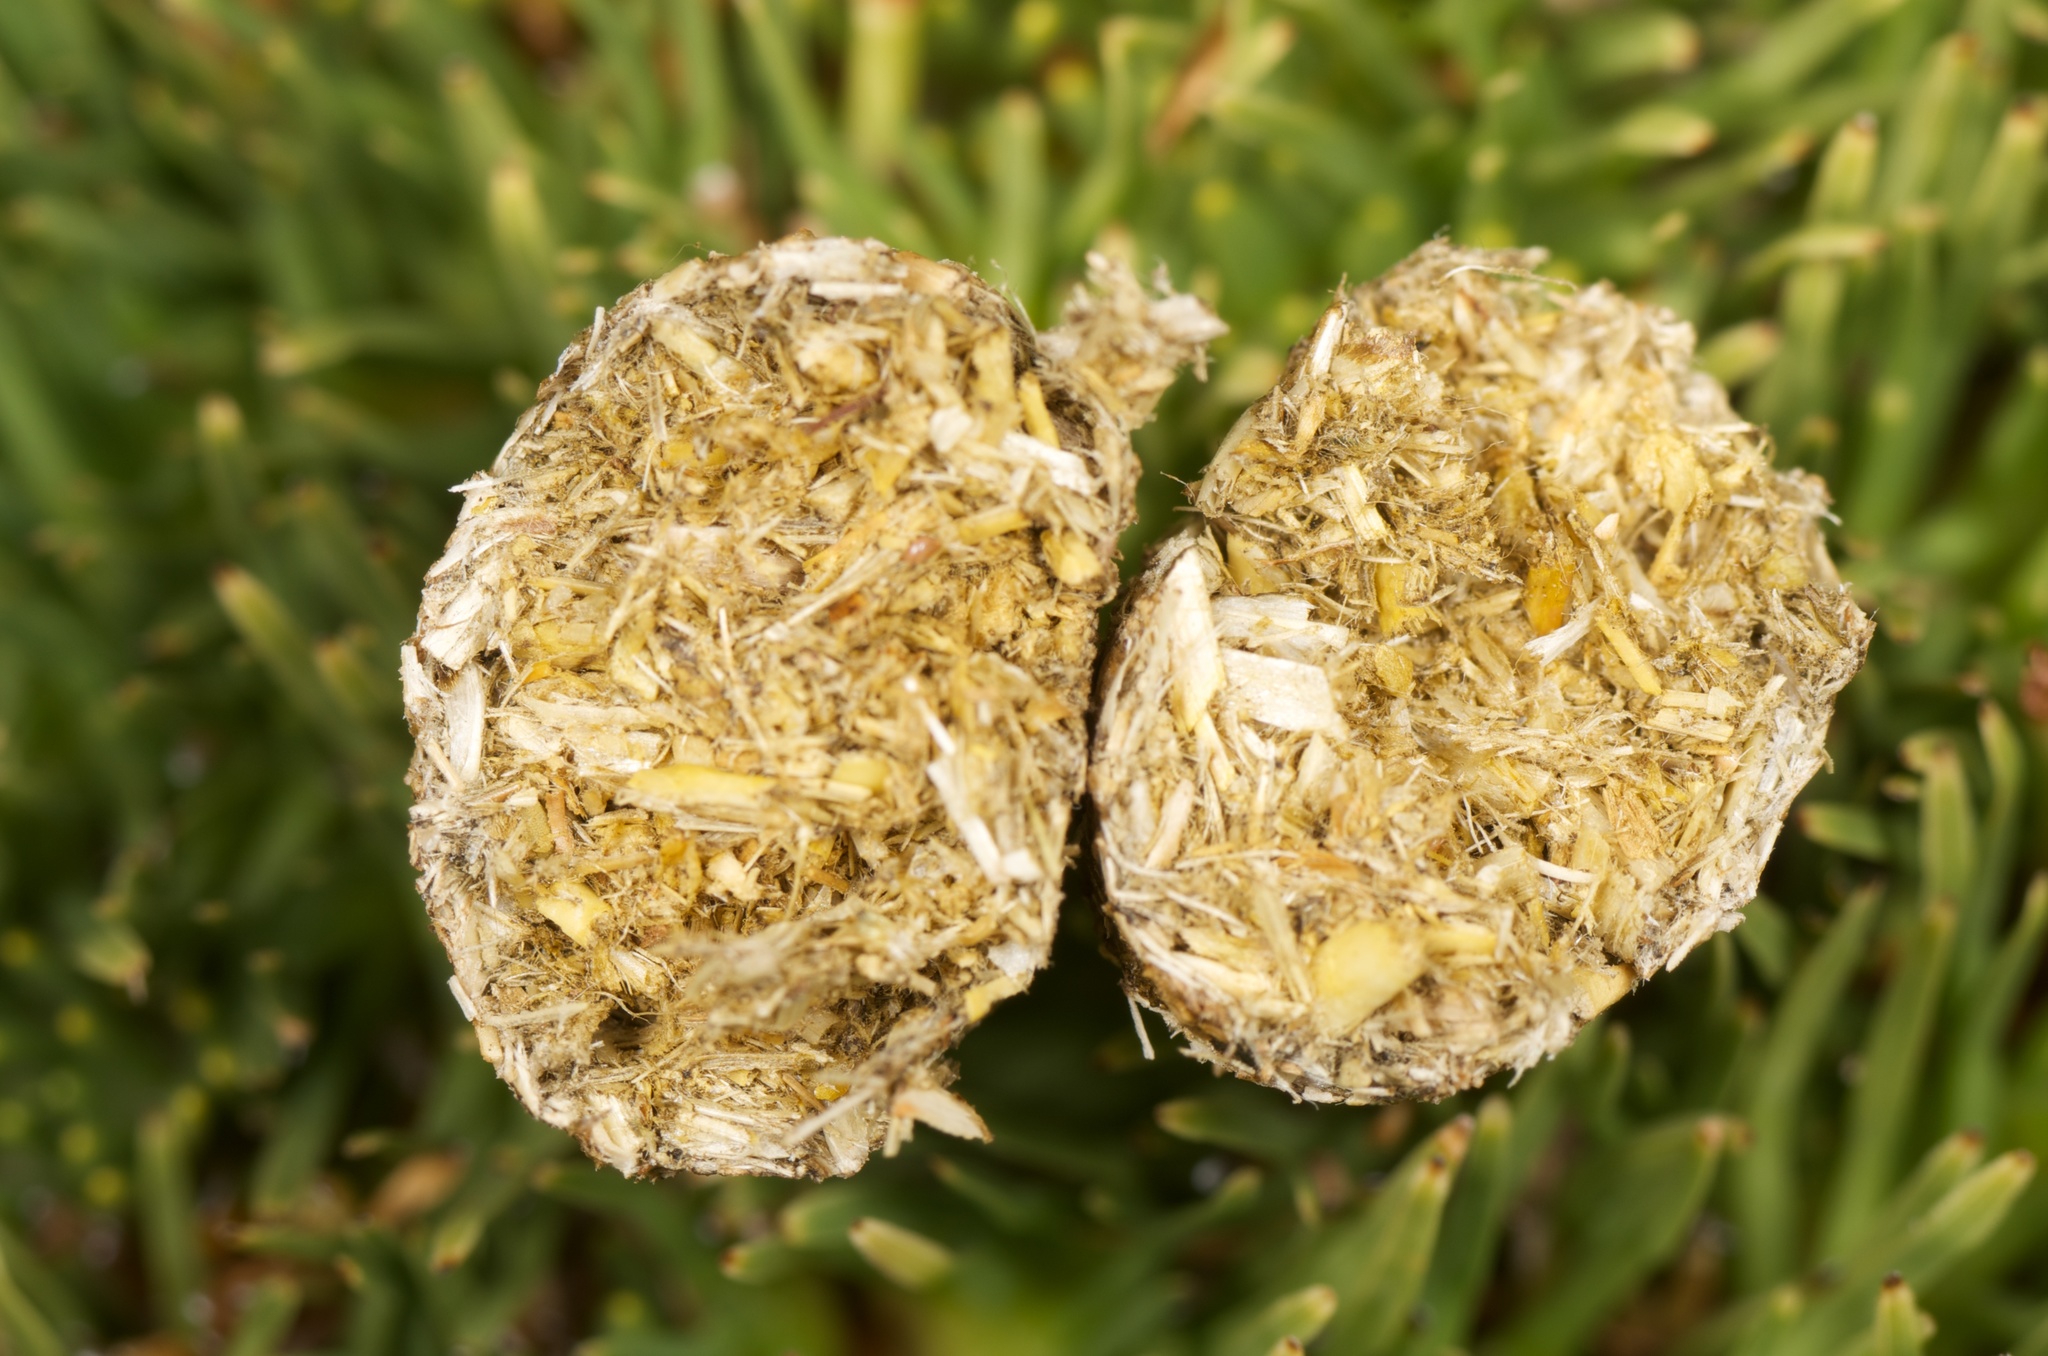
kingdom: Animalia
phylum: Chordata
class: Mammalia
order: Lagomorpha
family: Leporidae
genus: Lepus
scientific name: Lepus europaeus
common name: European hare
